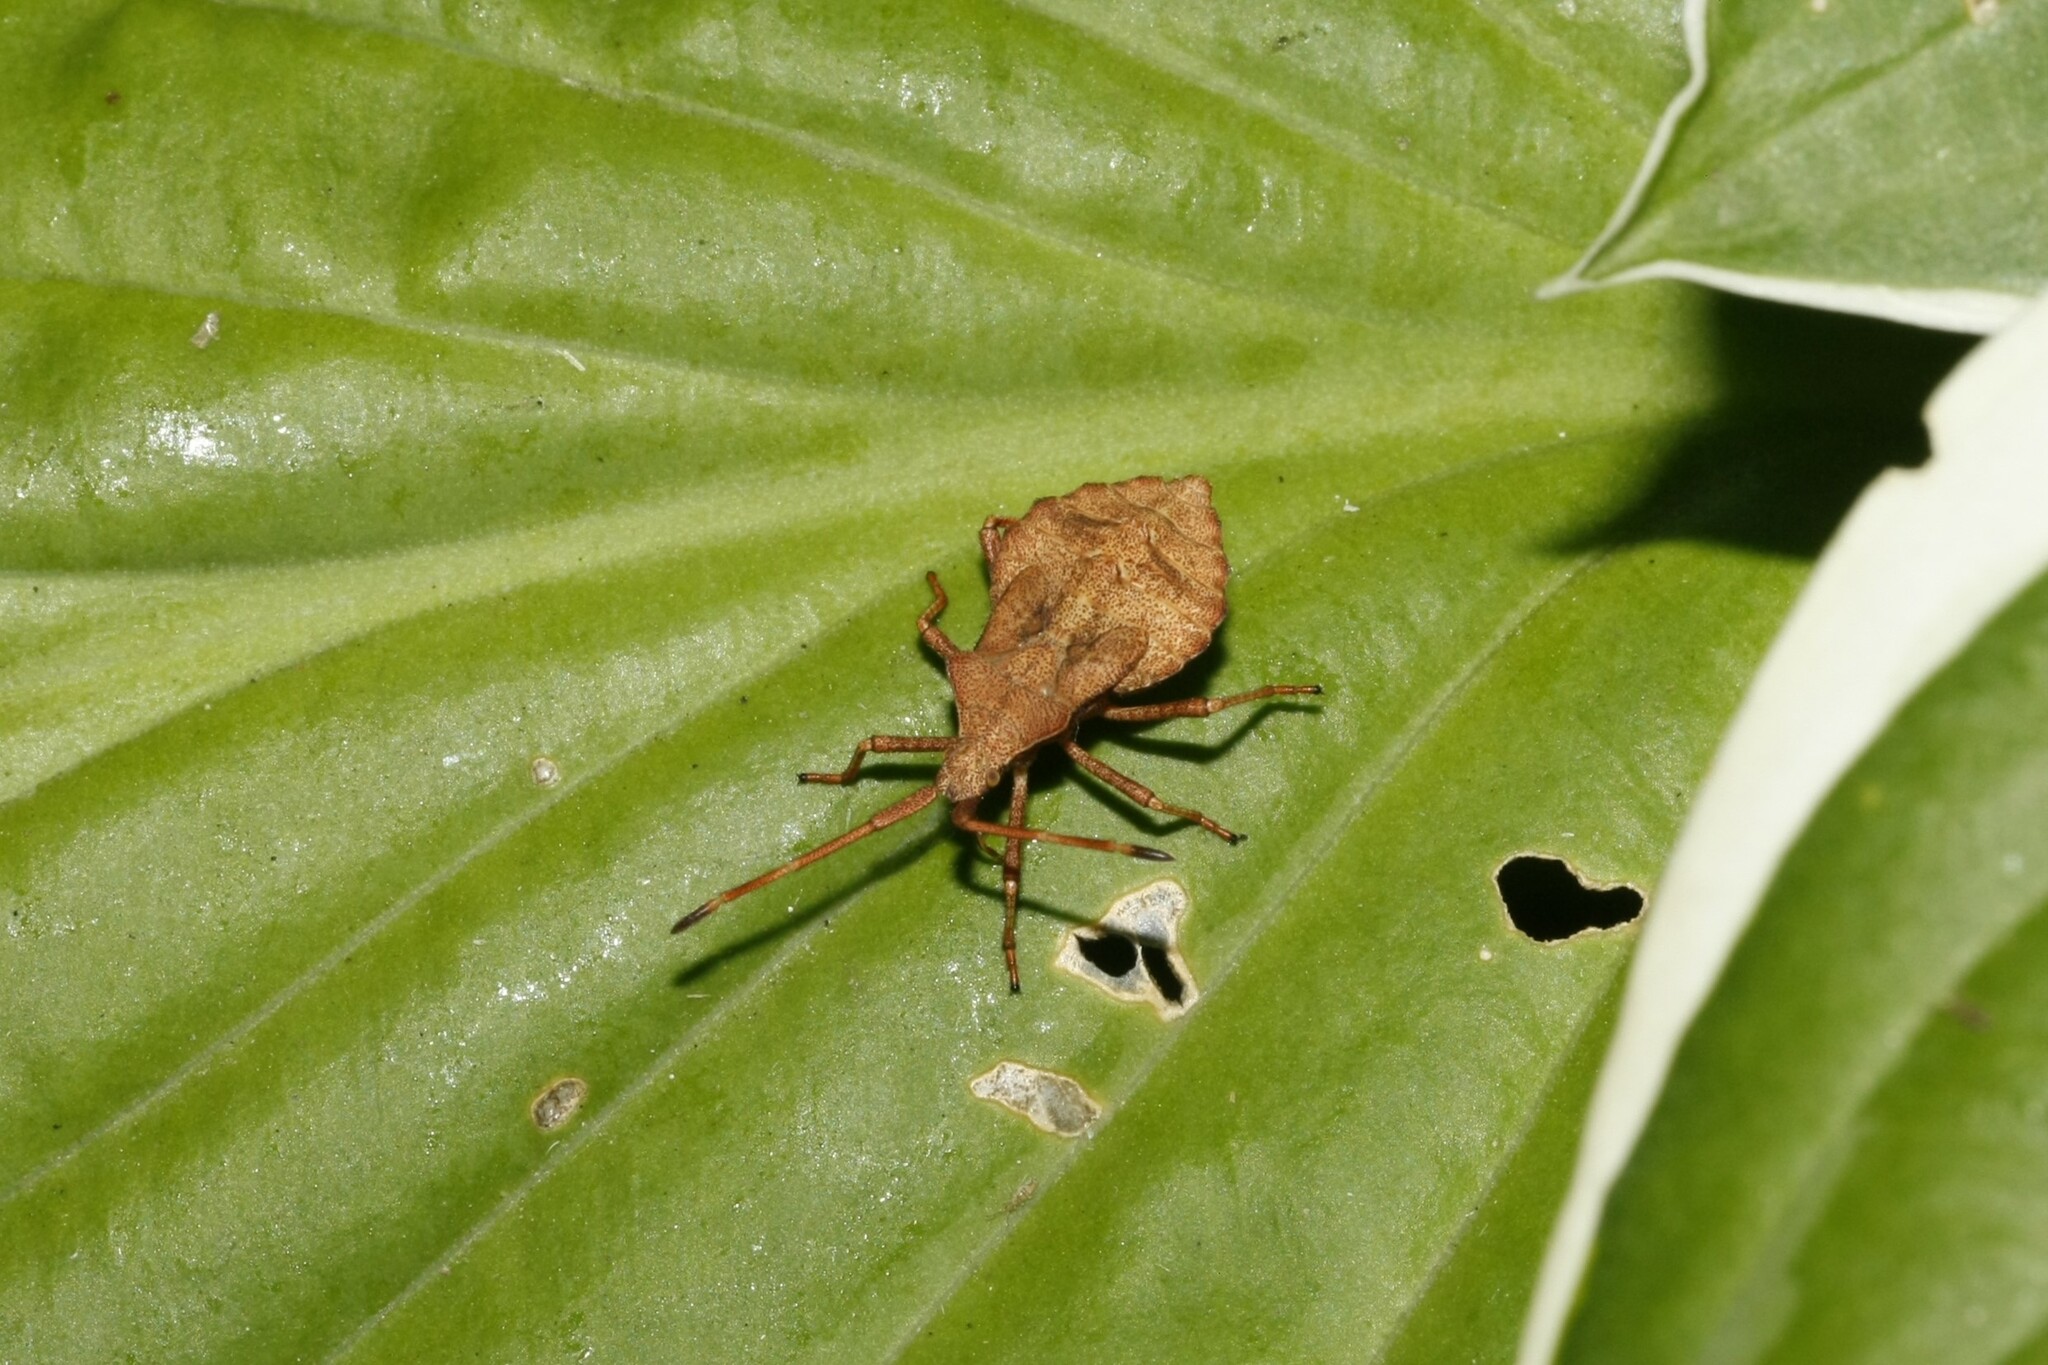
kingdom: Animalia
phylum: Arthropoda
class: Insecta
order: Hemiptera
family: Coreidae
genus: Coreus
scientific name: Coreus marginatus
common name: Dock bug
